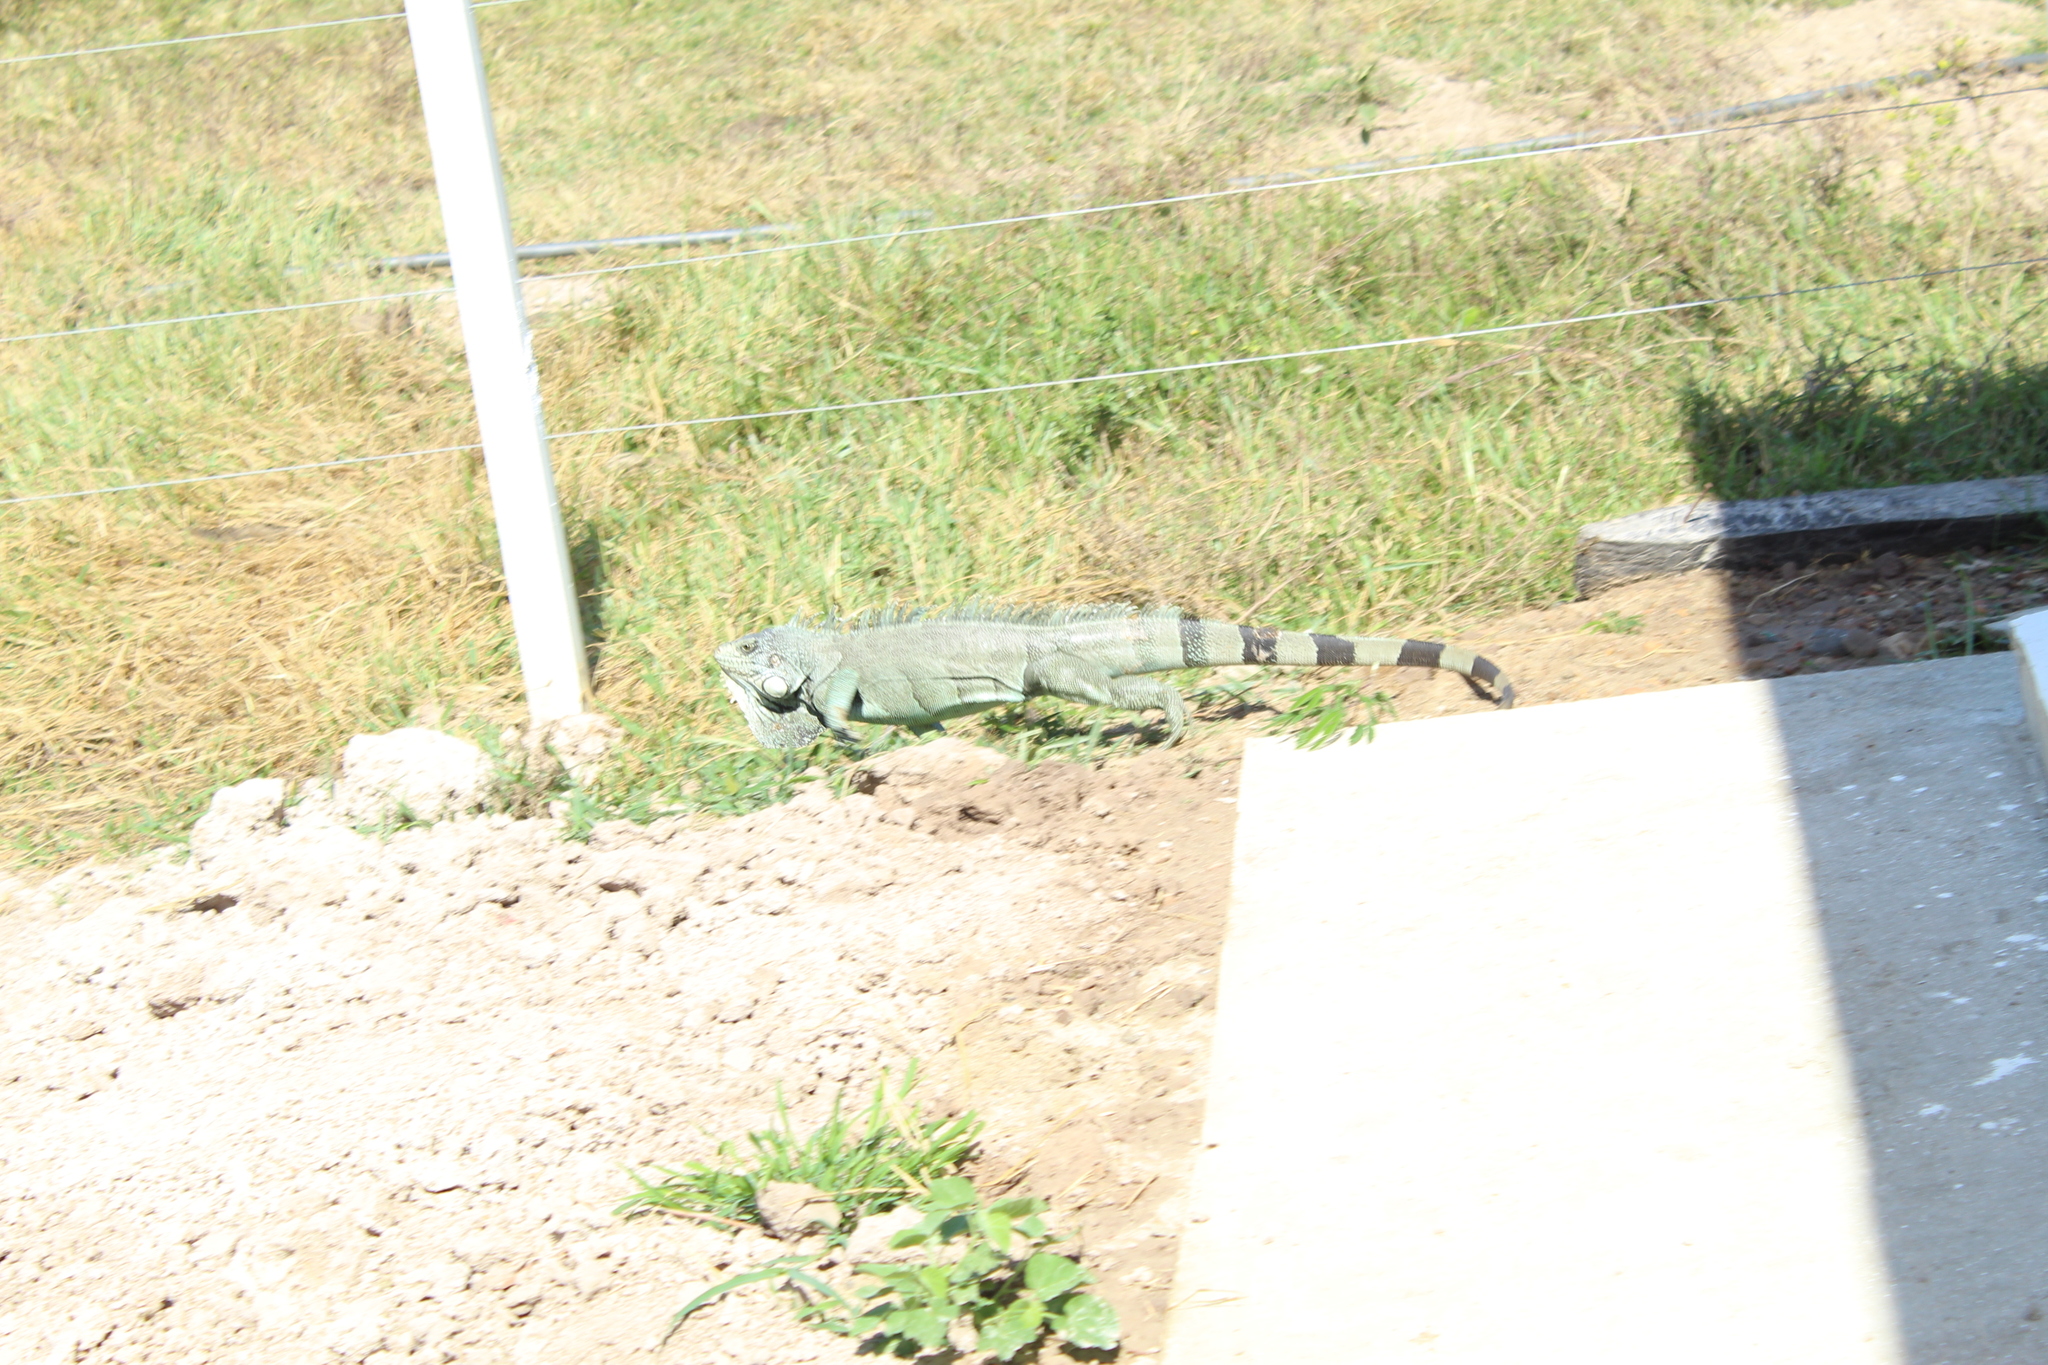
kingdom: Animalia
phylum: Chordata
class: Squamata
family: Iguanidae
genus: Iguana
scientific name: Iguana iguana
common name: Green iguana
